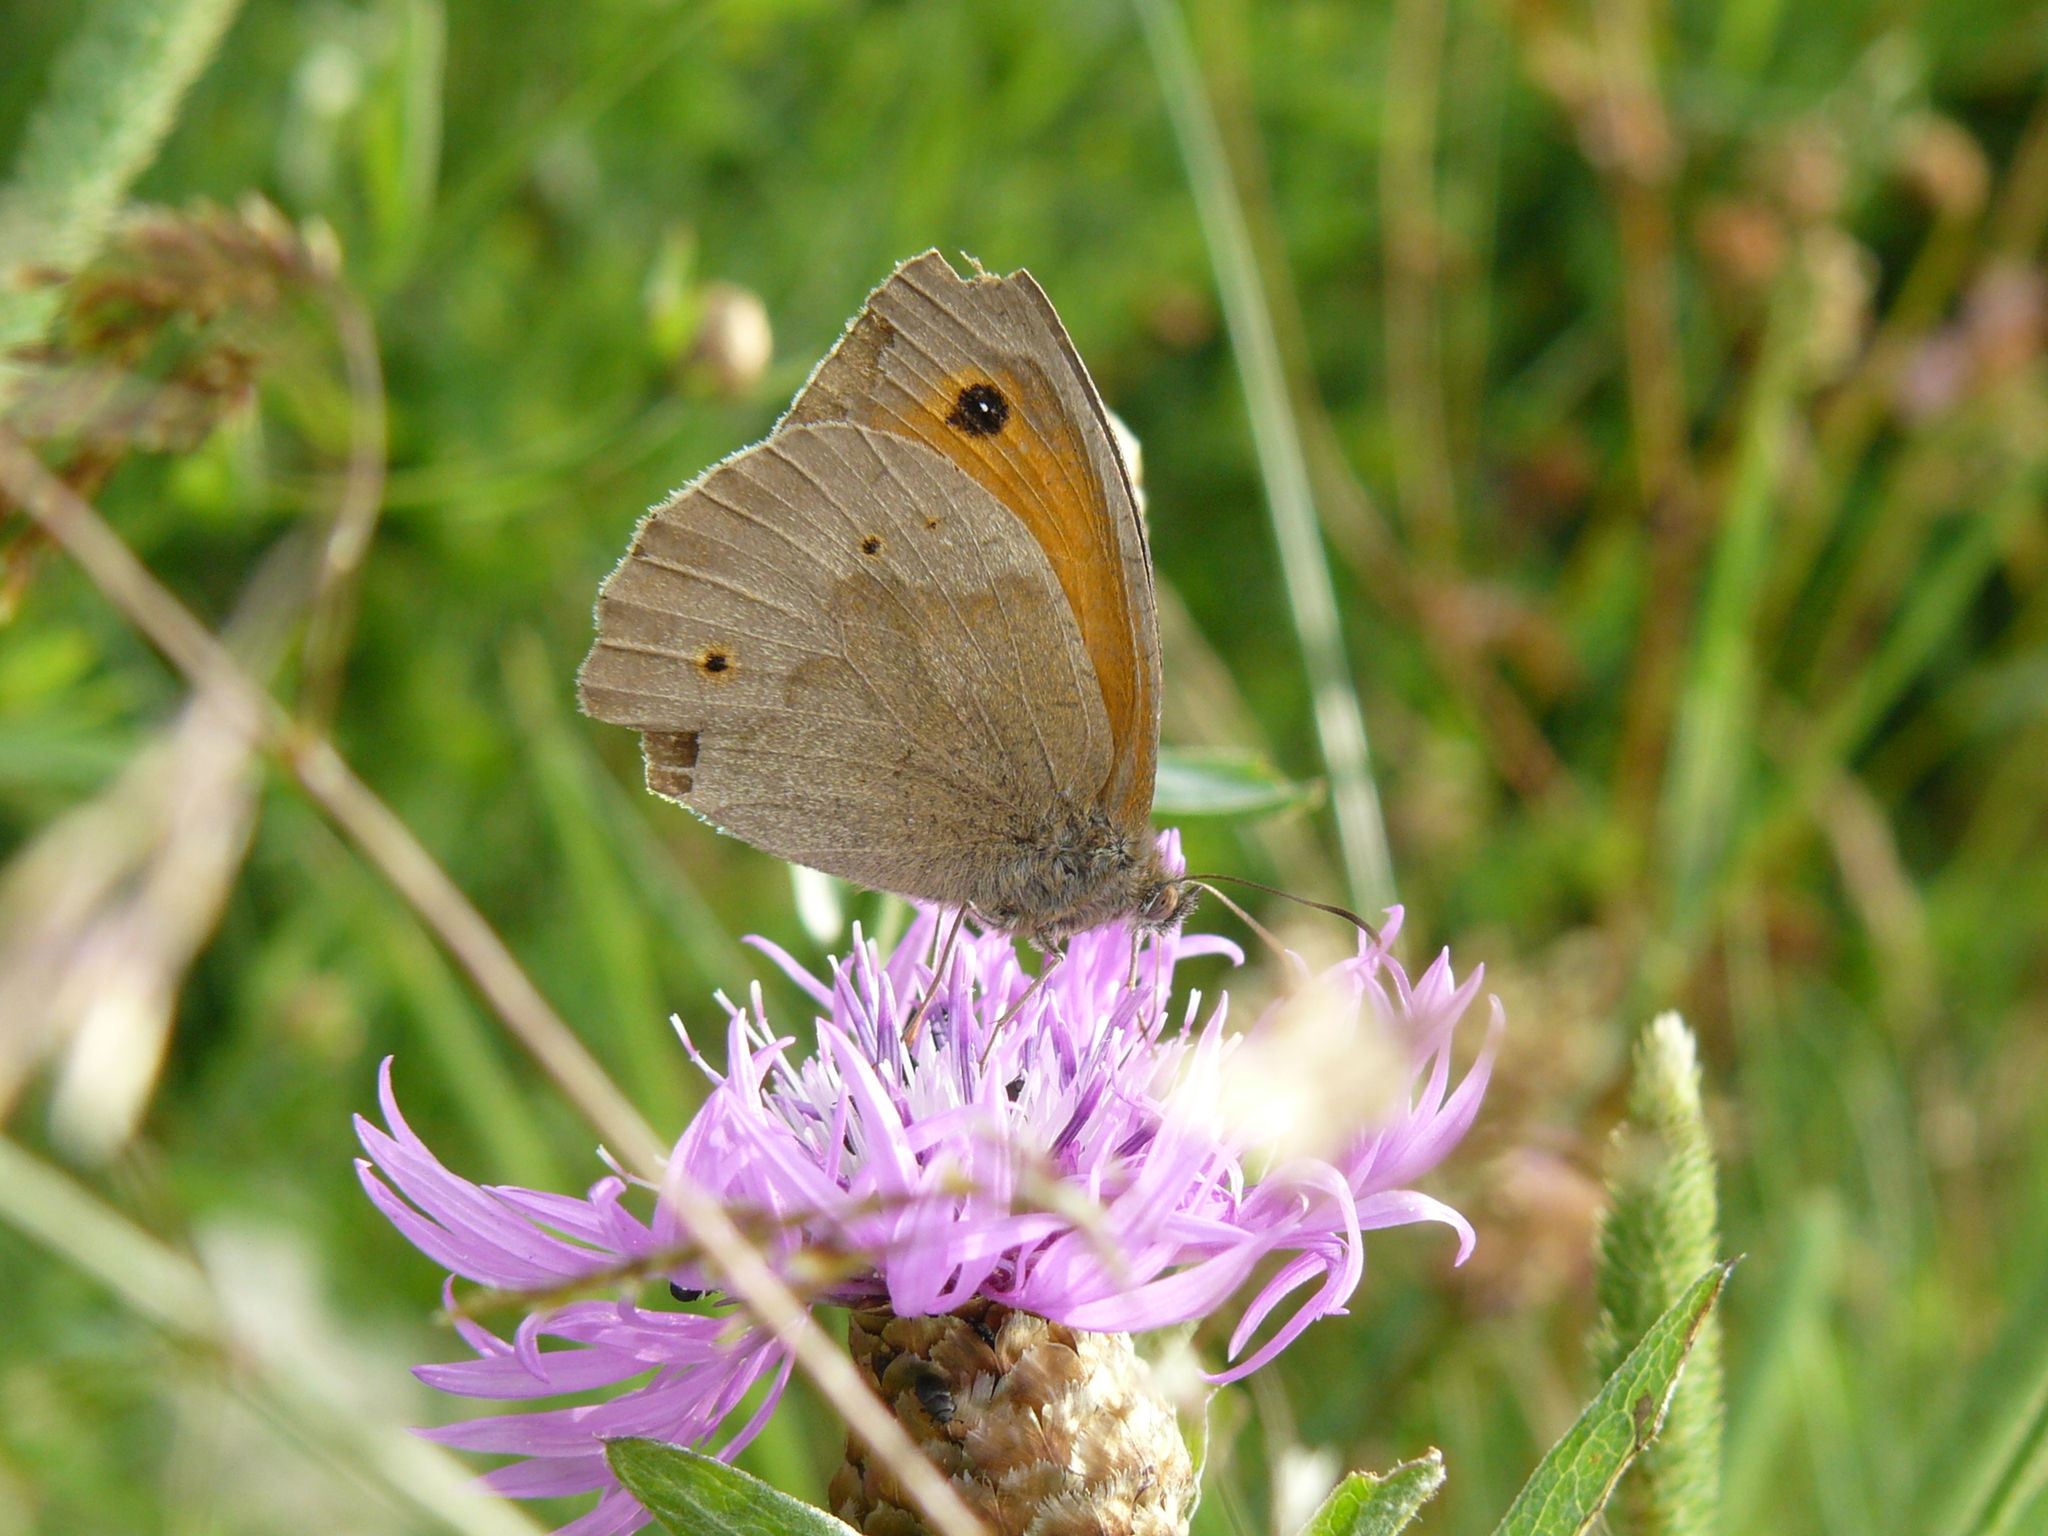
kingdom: Animalia
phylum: Arthropoda
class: Insecta
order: Lepidoptera
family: Nymphalidae
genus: Maniola
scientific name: Maniola jurtina
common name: Meadow brown
